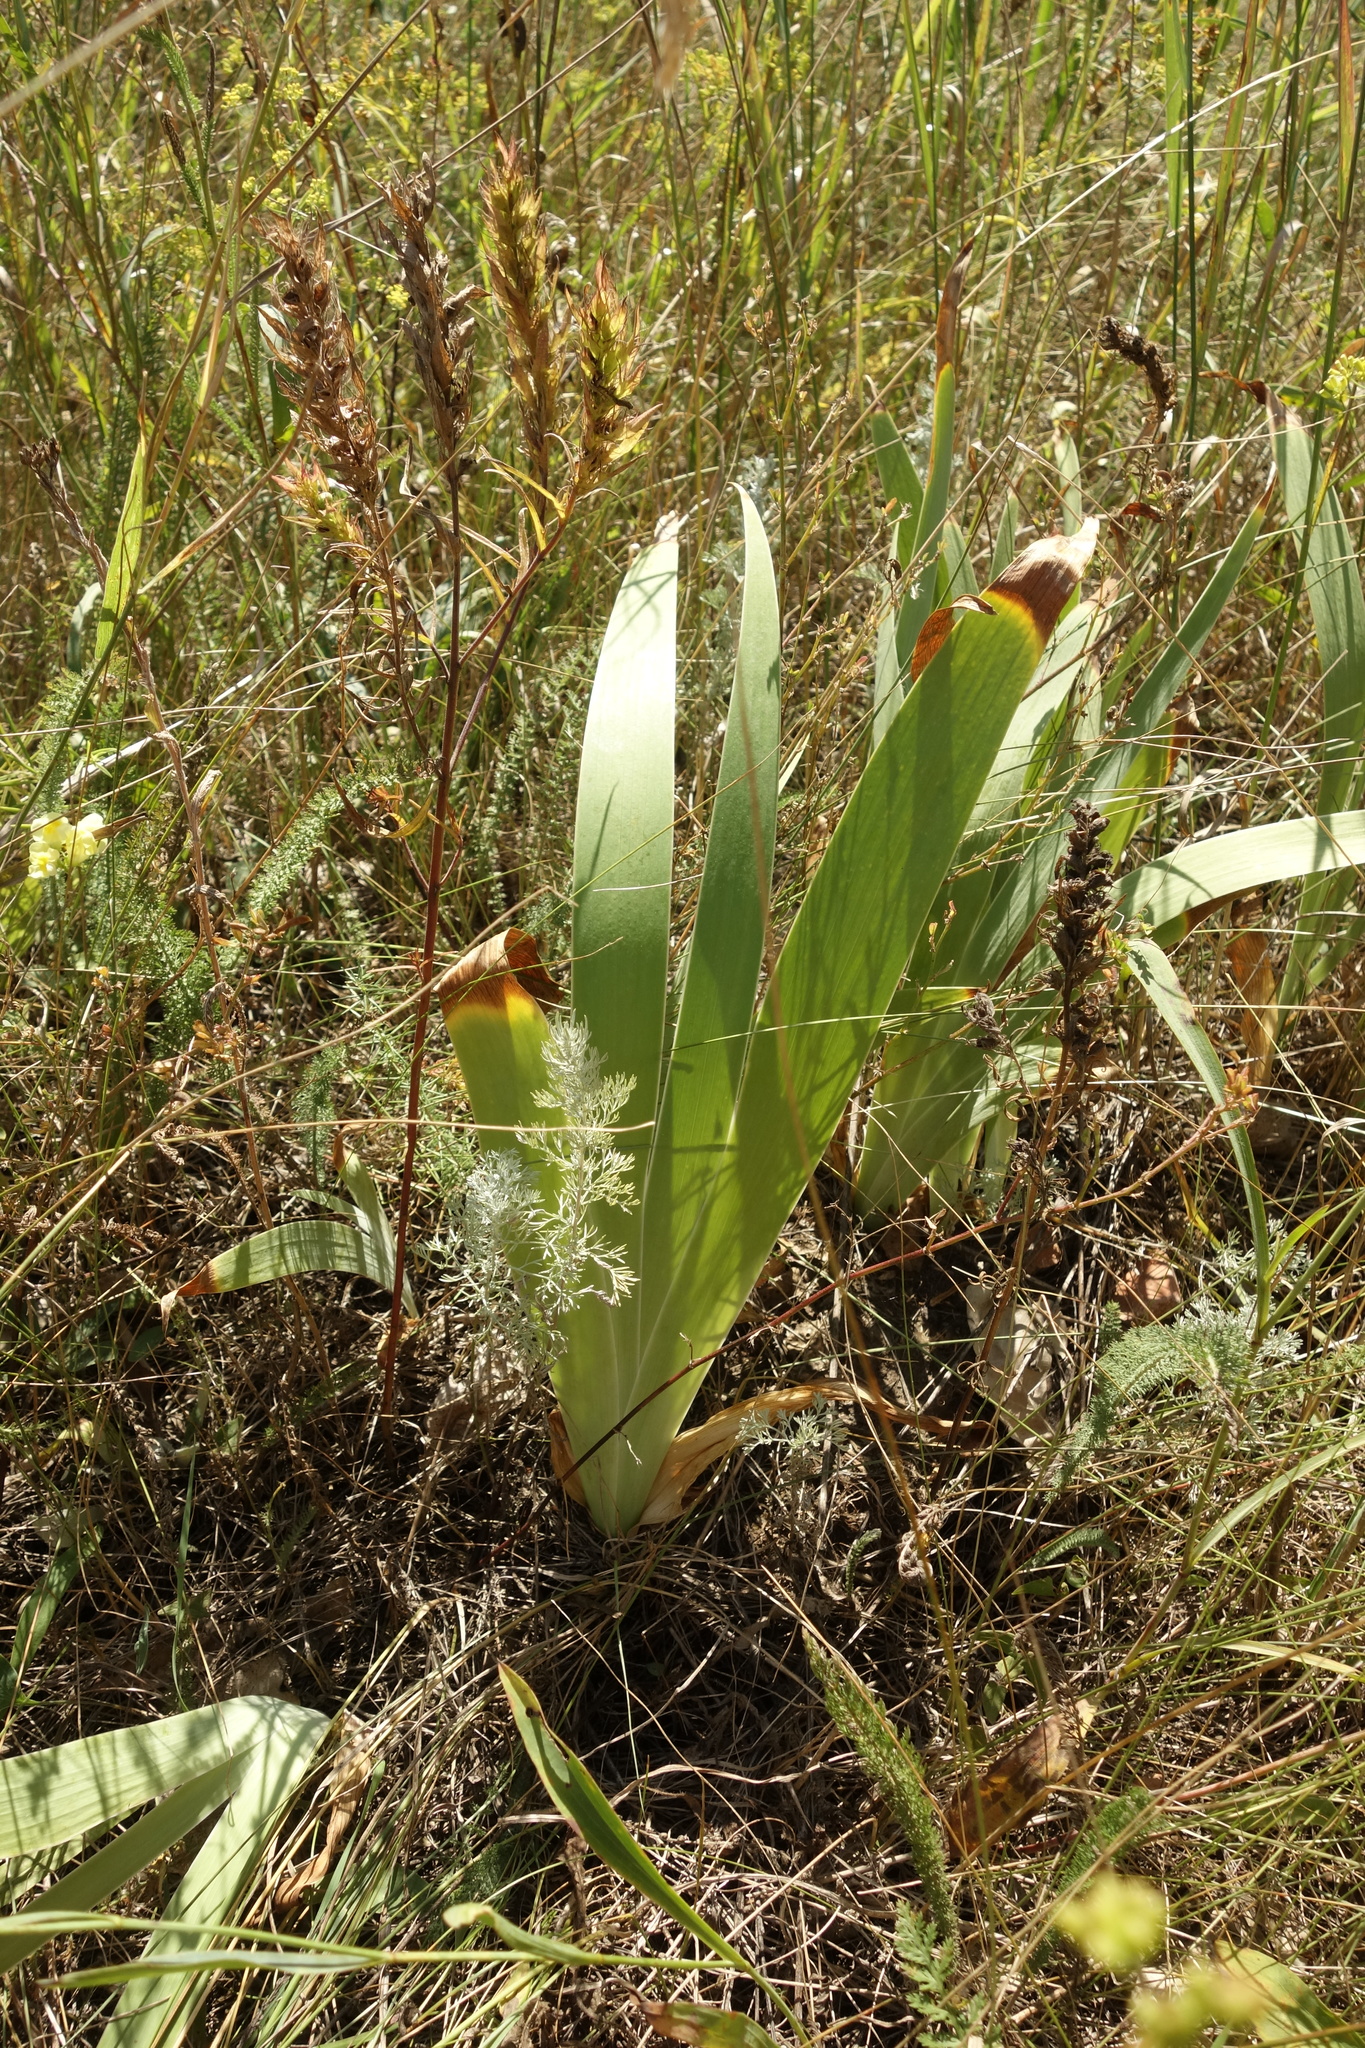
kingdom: Plantae
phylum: Tracheophyta
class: Liliopsida
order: Asparagales
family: Iridaceae
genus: Iris
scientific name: Iris aphylla
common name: Stool iris
